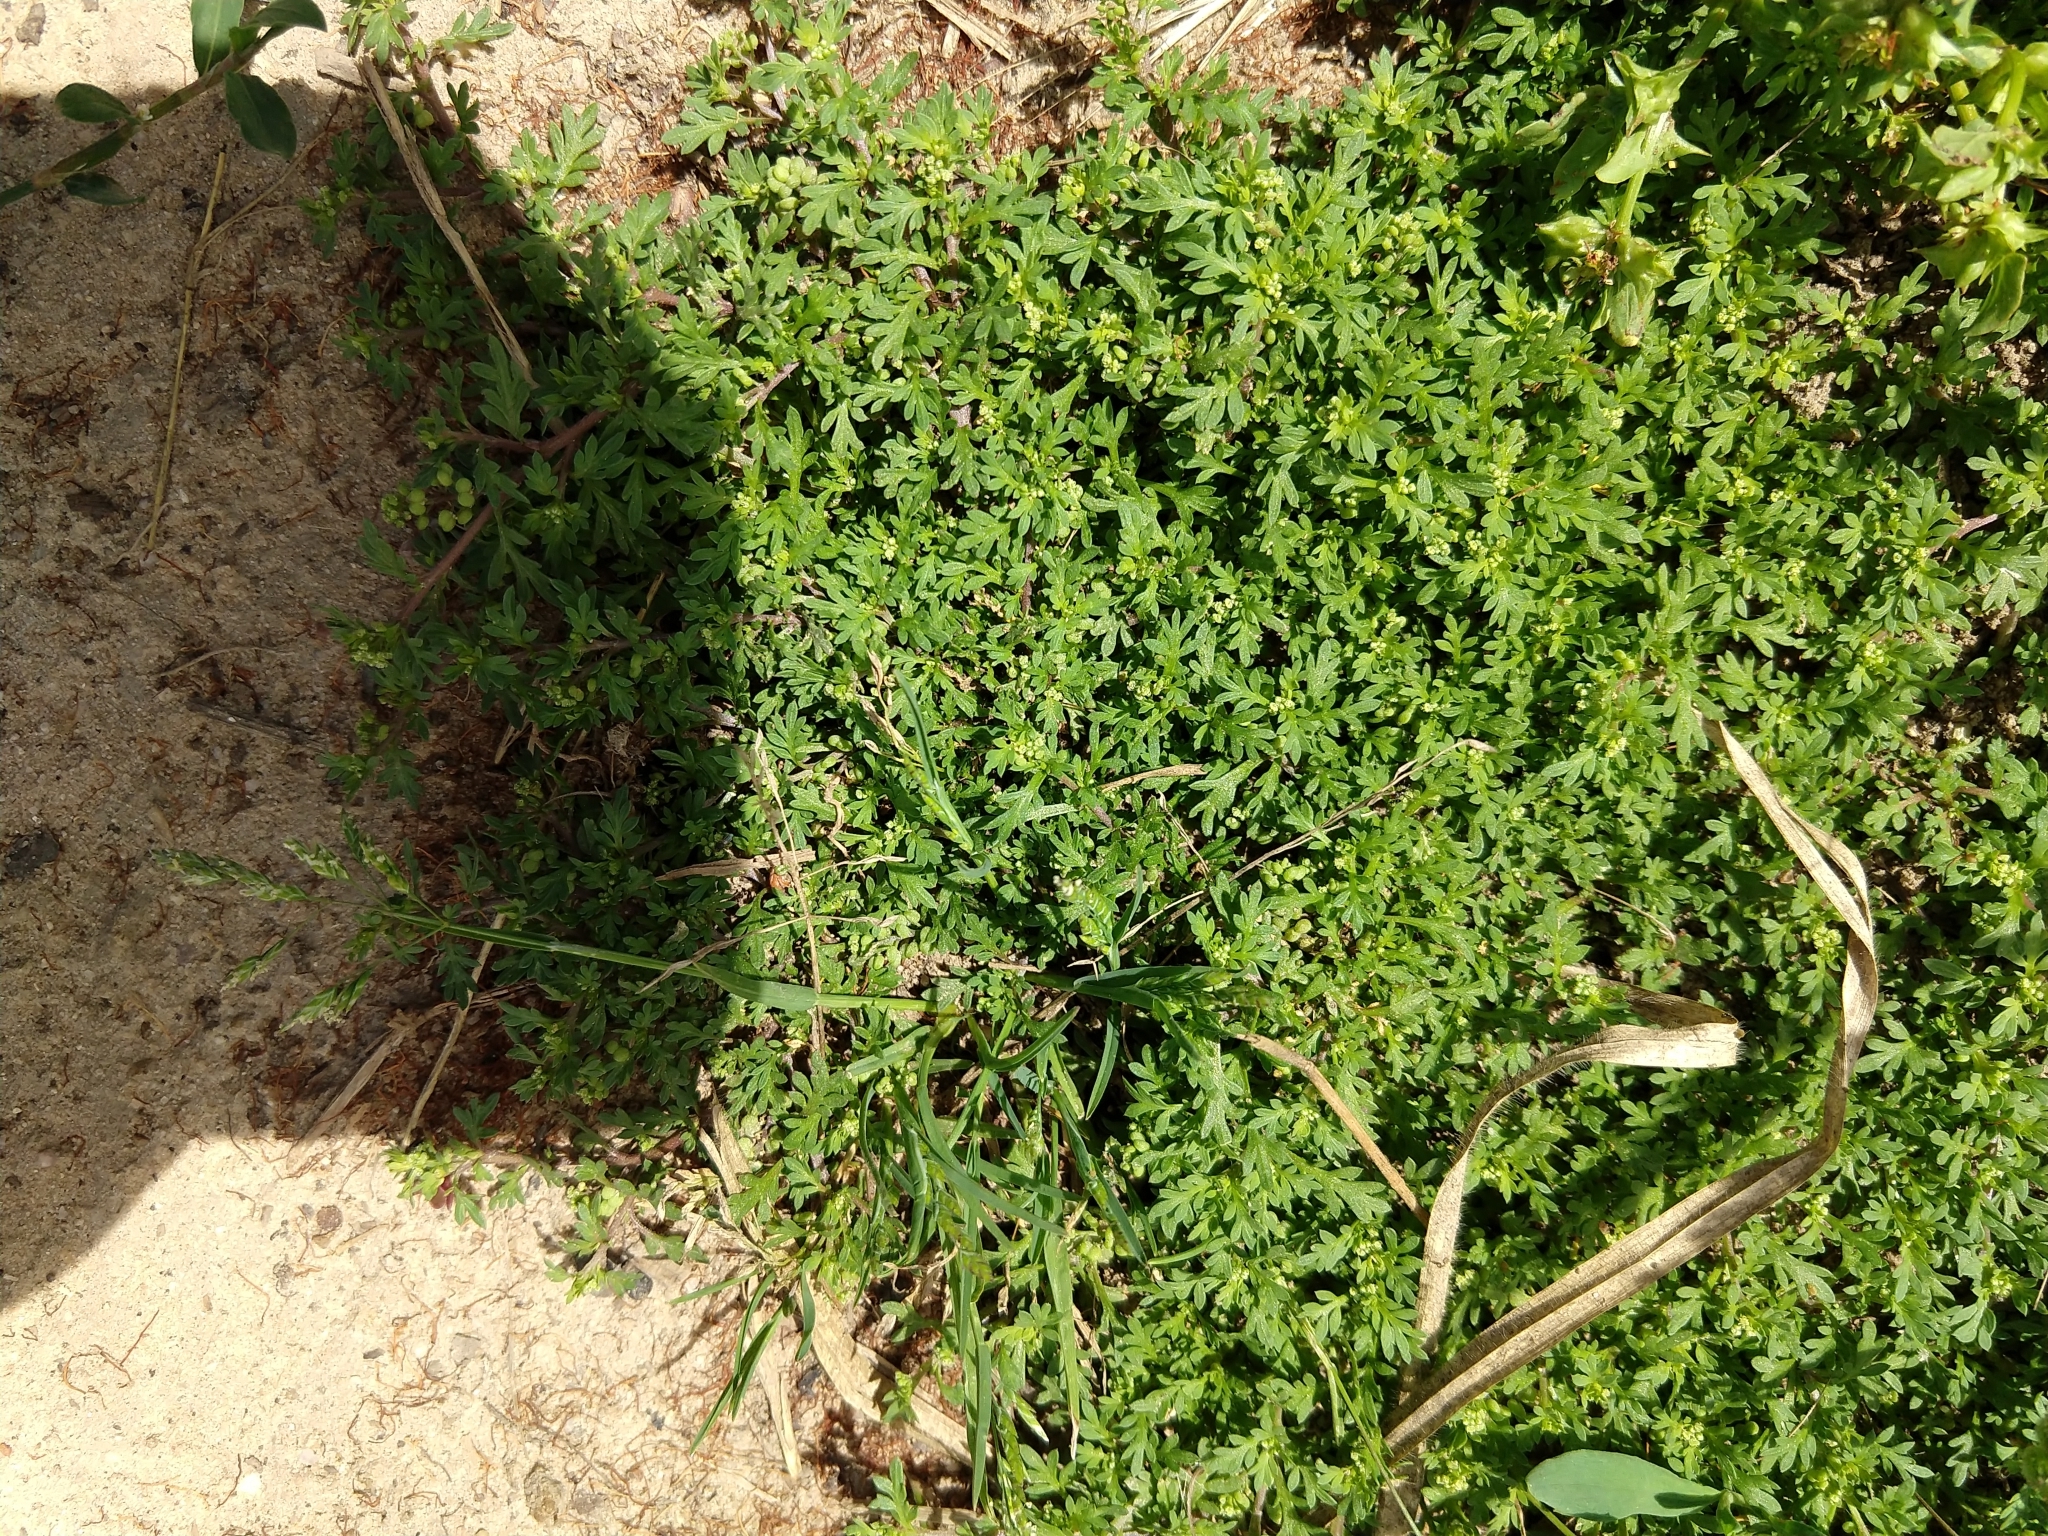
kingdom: Plantae
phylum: Tracheophyta
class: Magnoliopsida
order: Brassicales
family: Brassicaceae
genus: Lepidium
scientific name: Lepidium didymum
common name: Lesser swinecress
